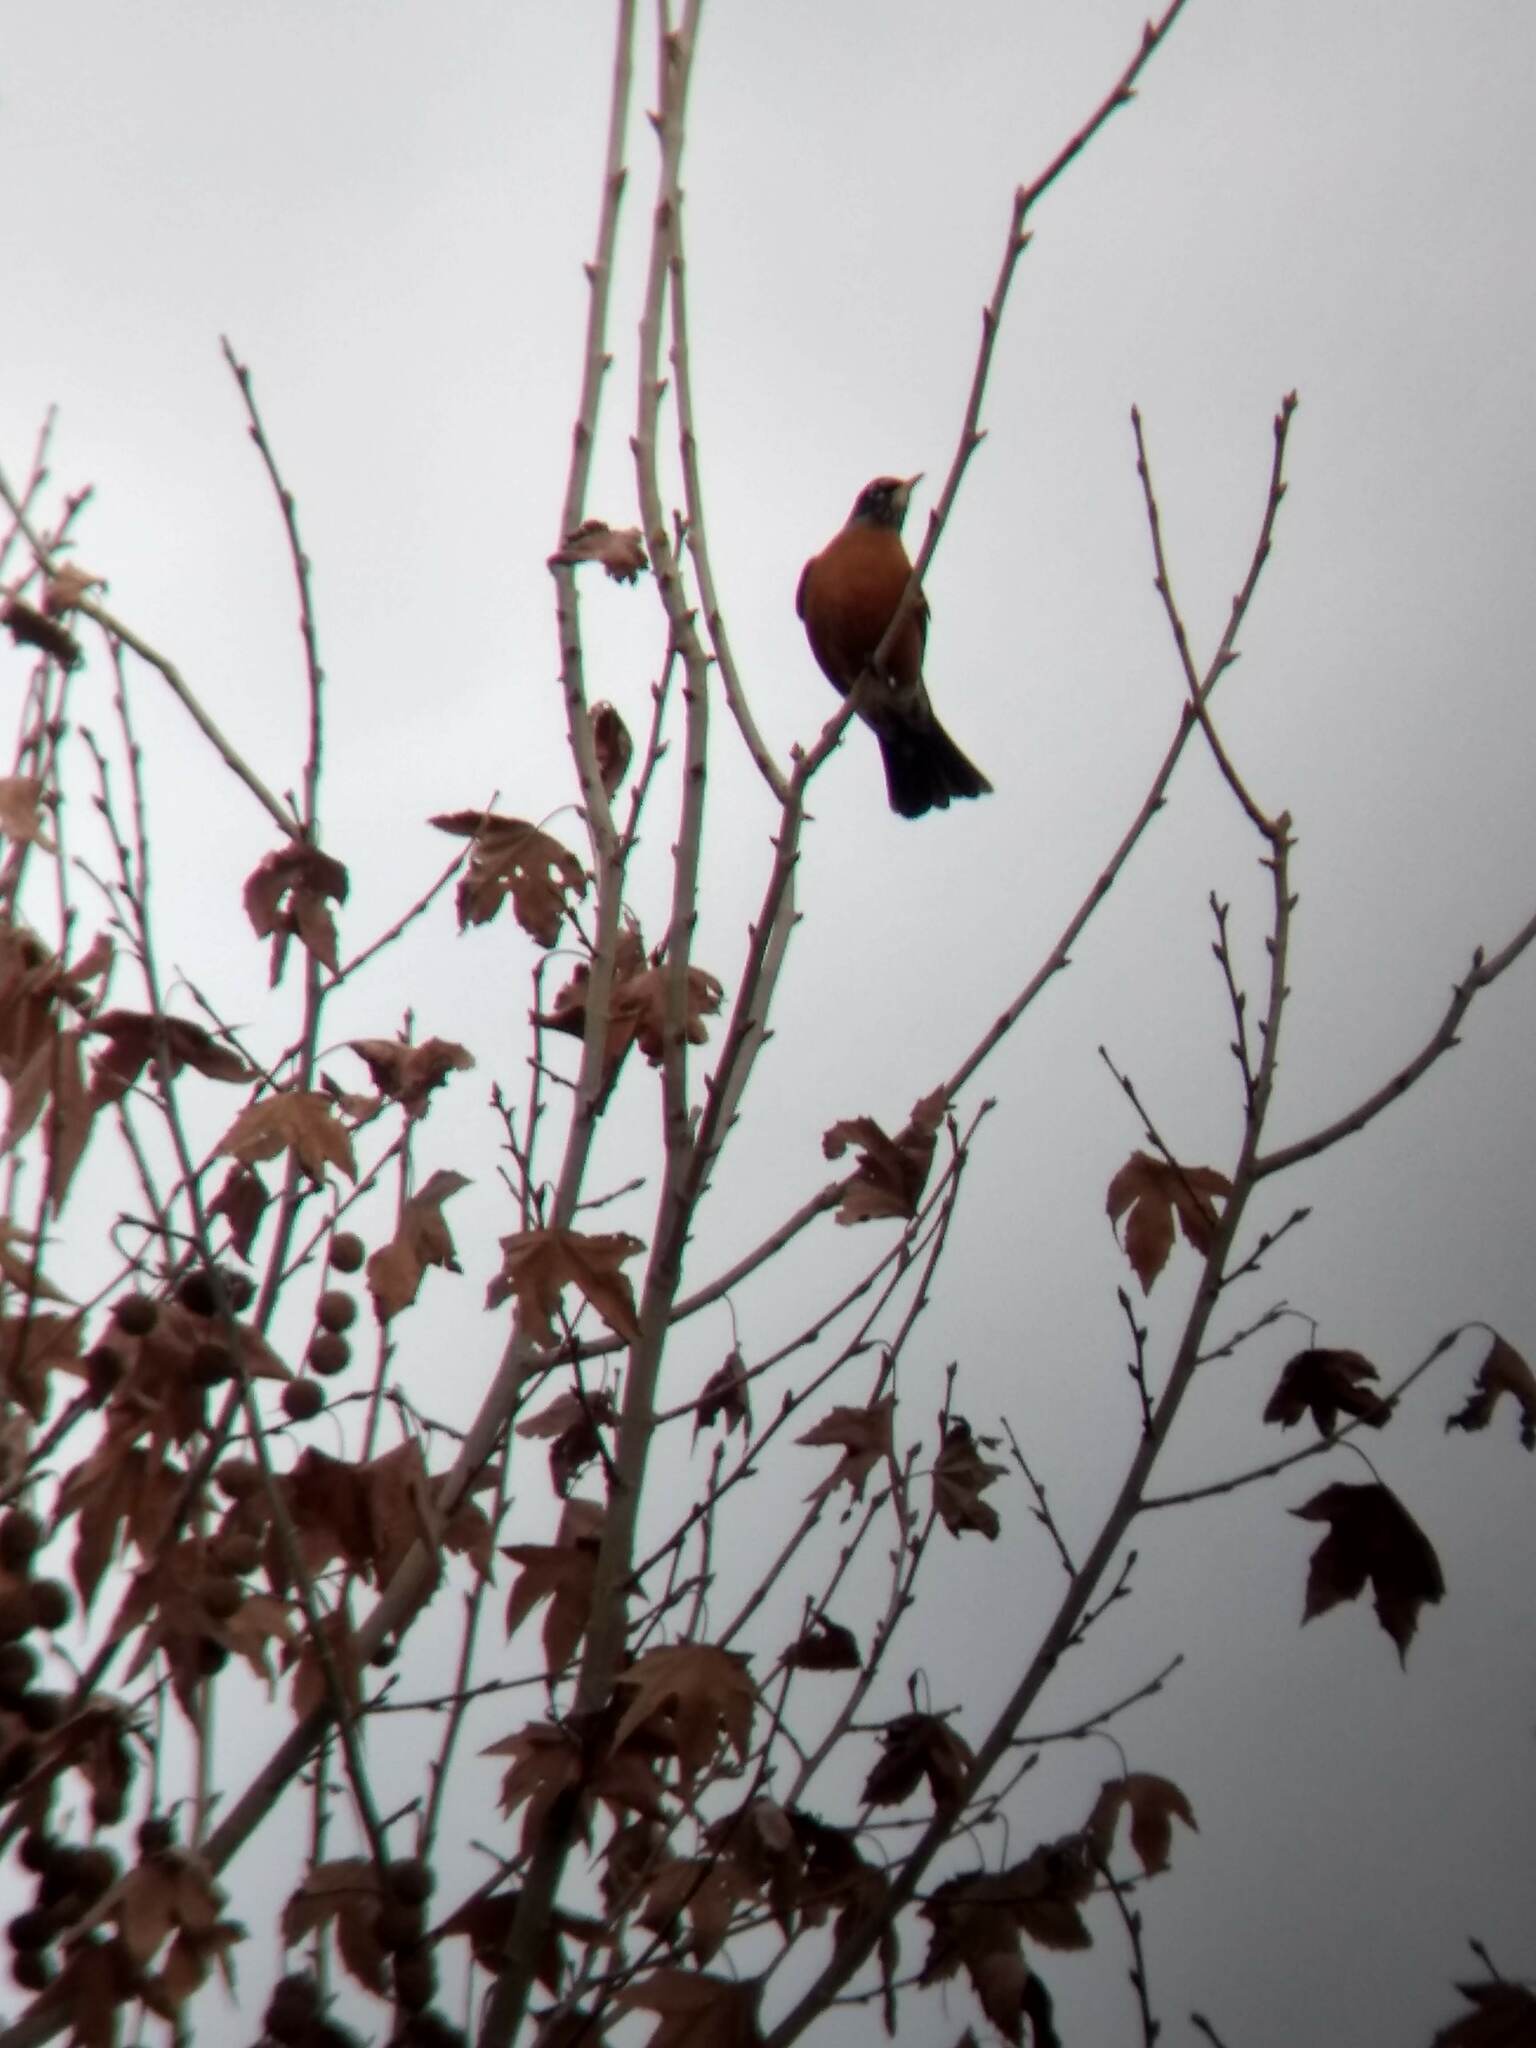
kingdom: Animalia
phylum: Chordata
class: Aves
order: Passeriformes
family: Turdidae
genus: Turdus
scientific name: Turdus migratorius
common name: American robin
